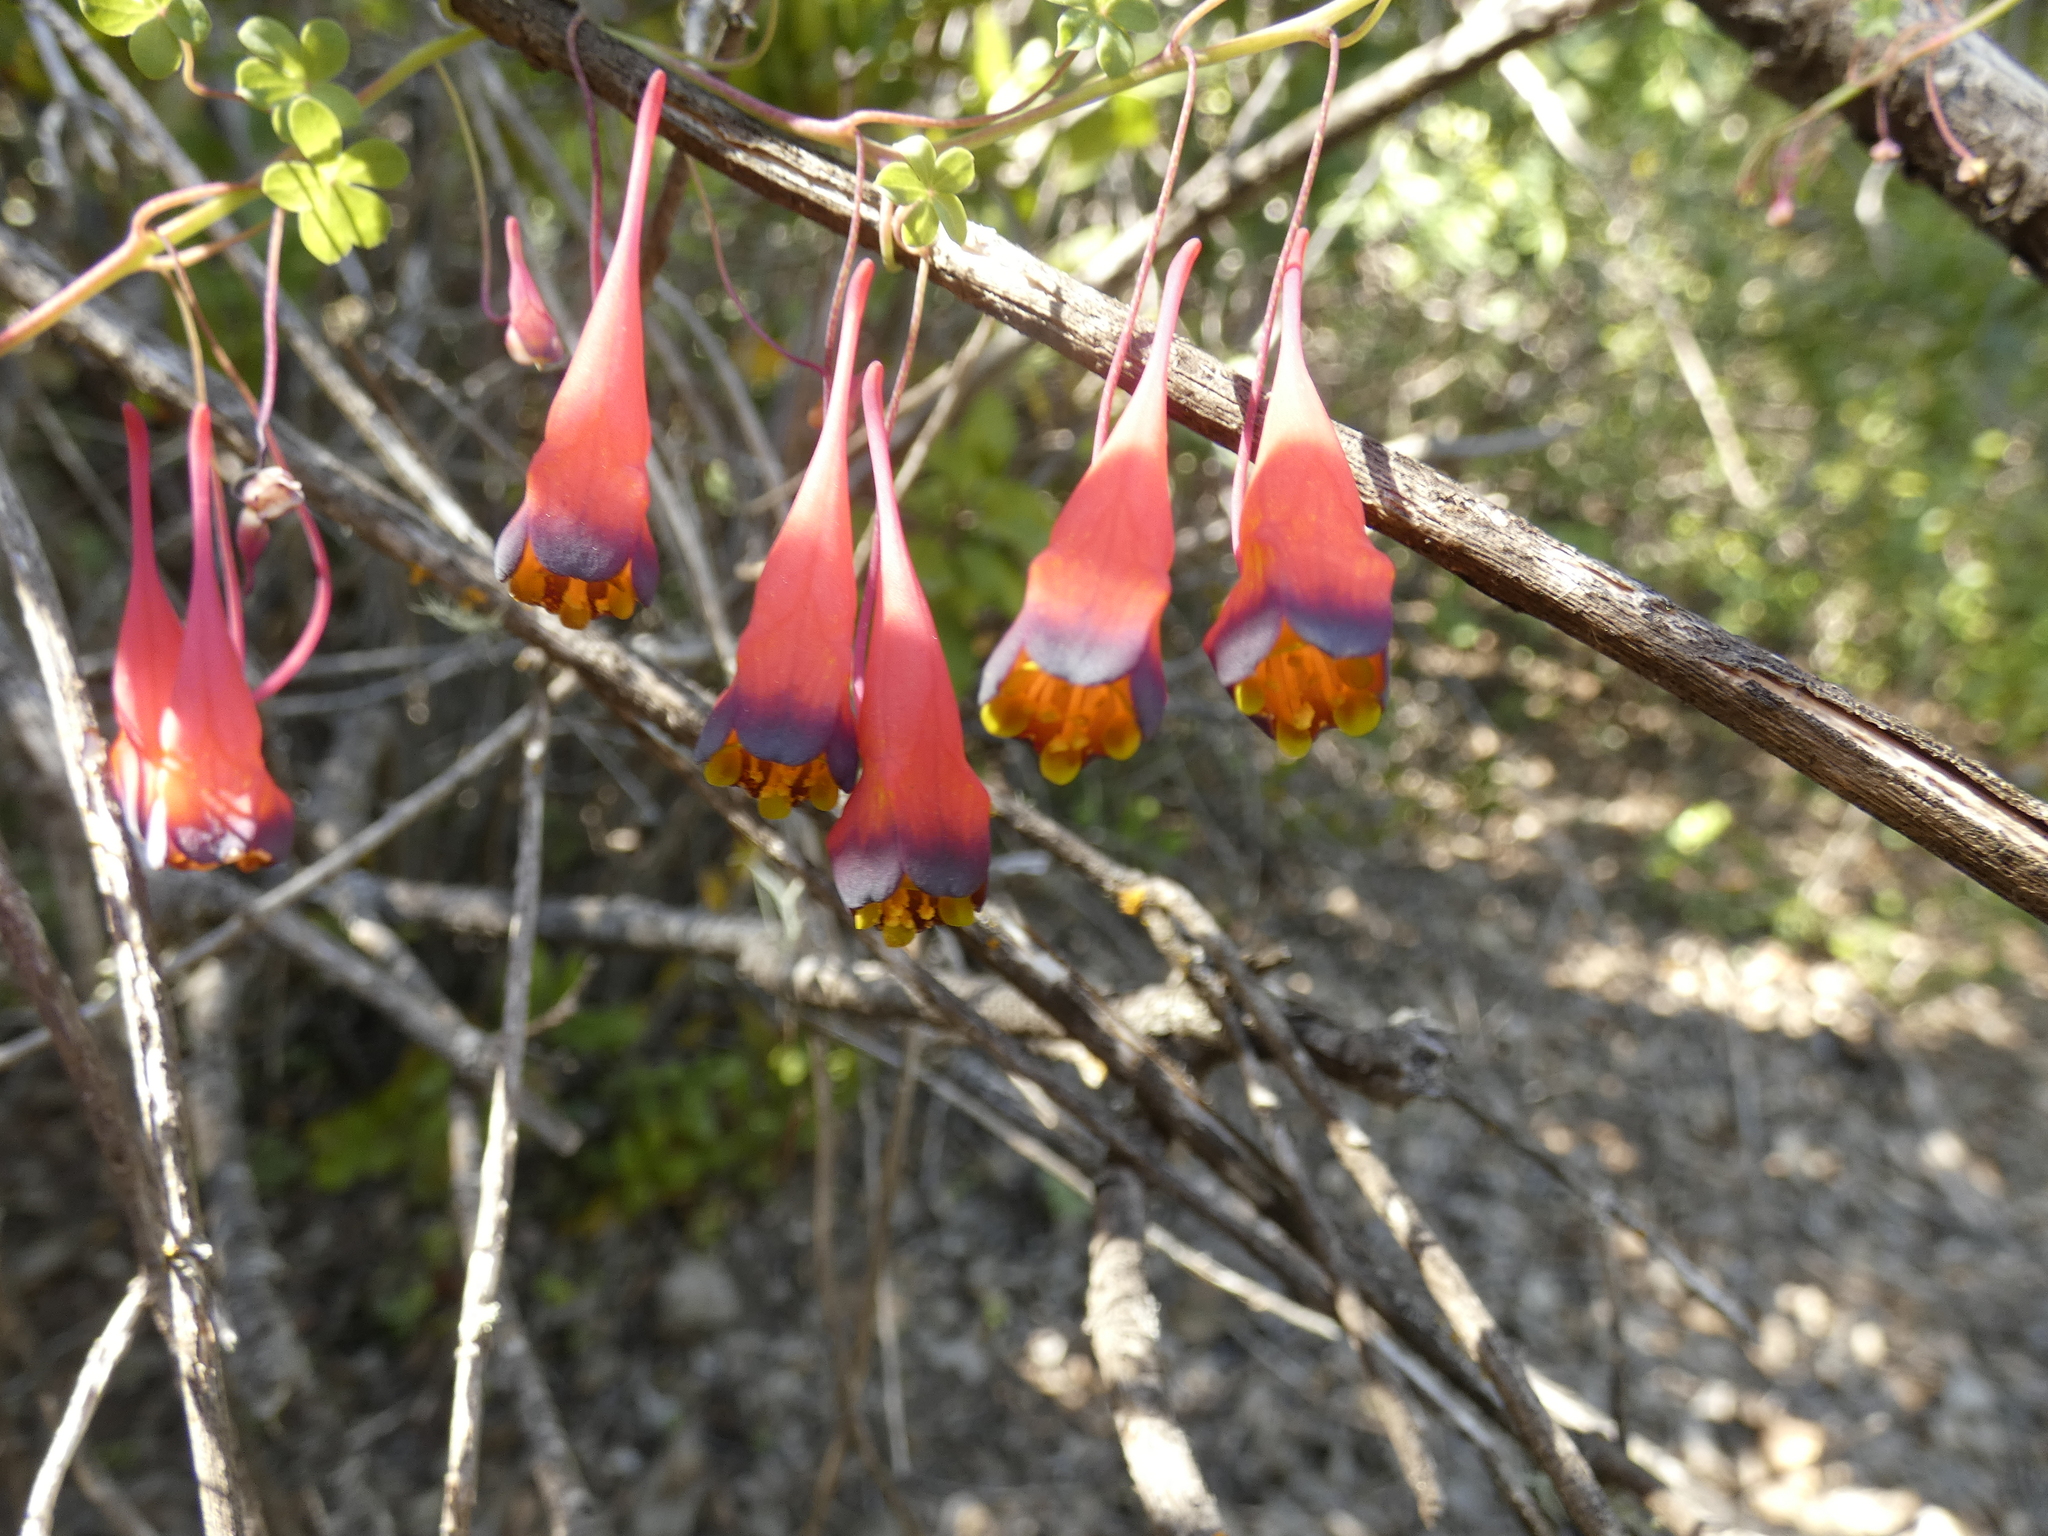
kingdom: Plantae
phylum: Tracheophyta
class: Magnoliopsida
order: Brassicales
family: Tropaeolaceae
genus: Tropaeolum
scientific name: Tropaeolum tricolor
